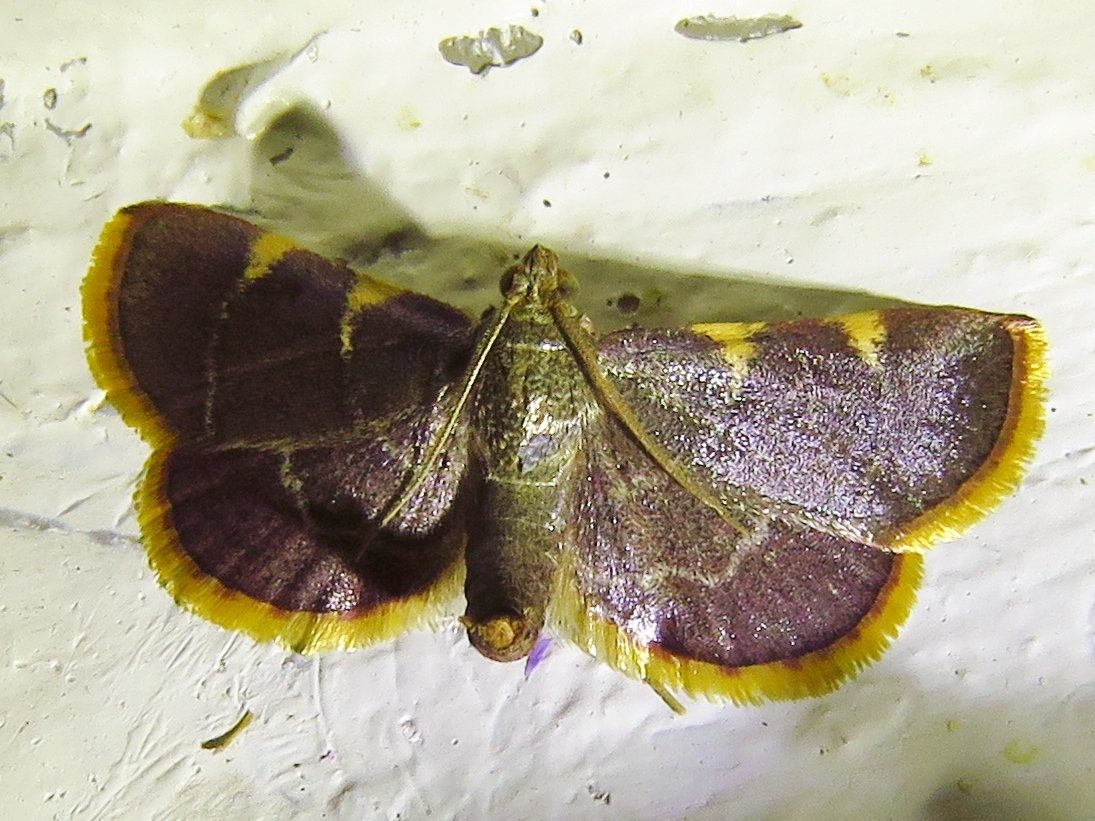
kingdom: Animalia
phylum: Arthropoda
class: Insecta
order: Lepidoptera
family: Pyralidae
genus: Hypsopygia
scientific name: Hypsopygia olinalis
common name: Yellow-fringed dolichomia moth
